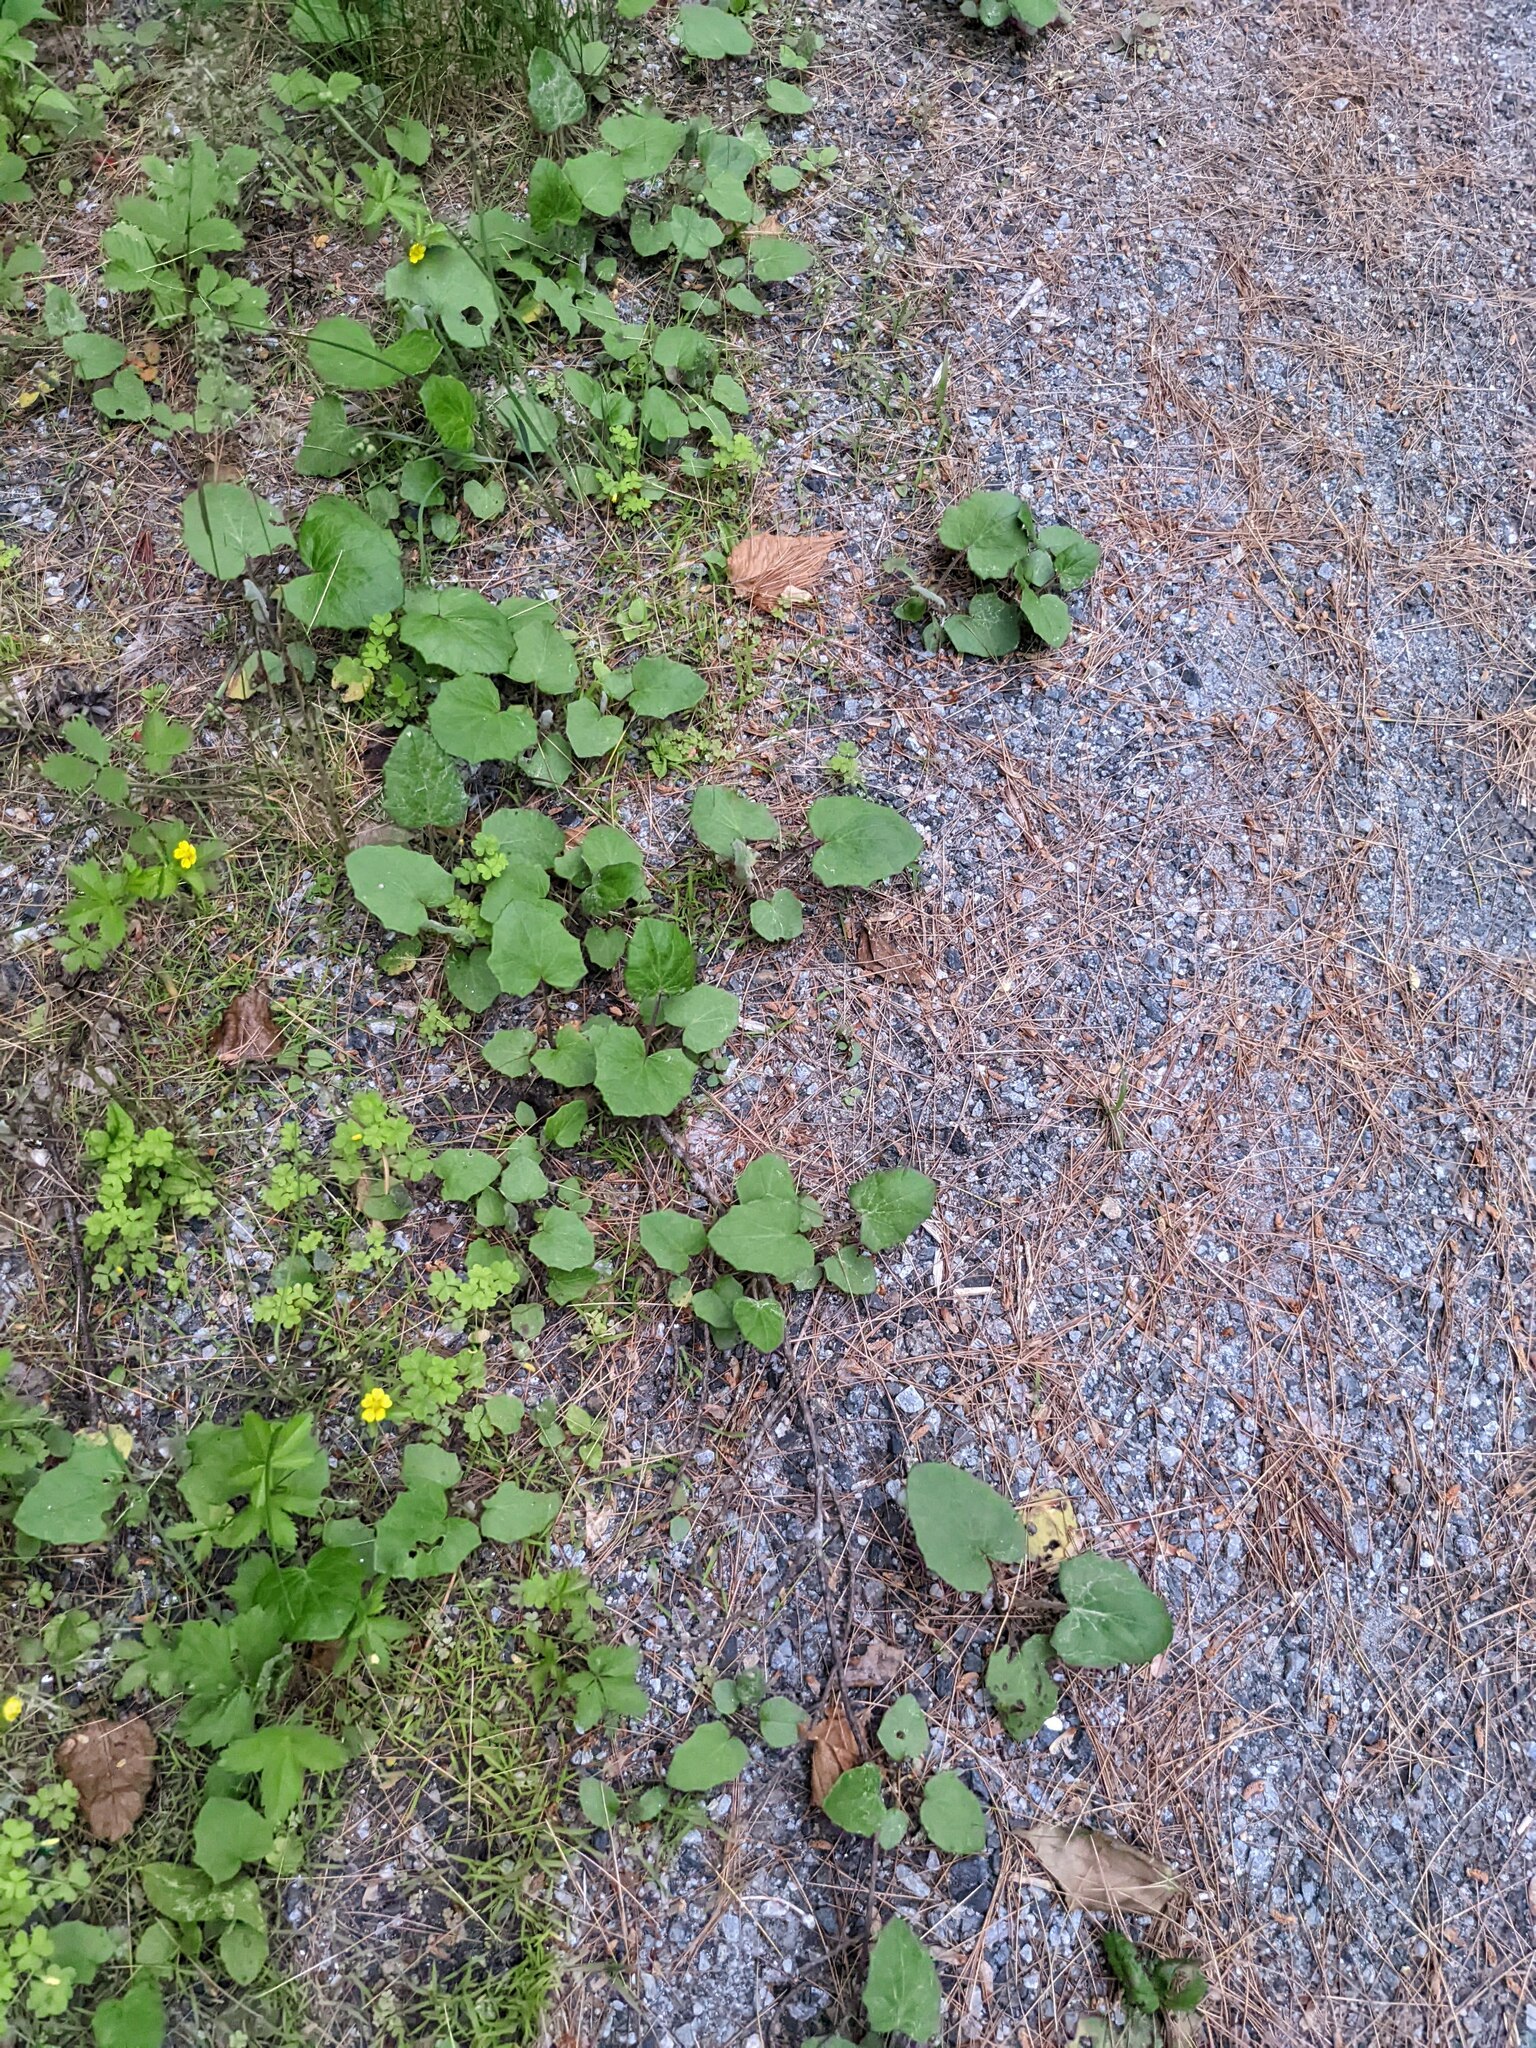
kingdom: Plantae
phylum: Tracheophyta
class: Magnoliopsida
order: Asterales
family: Asteraceae
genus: Tussilago
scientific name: Tussilago farfara
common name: Coltsfoot
